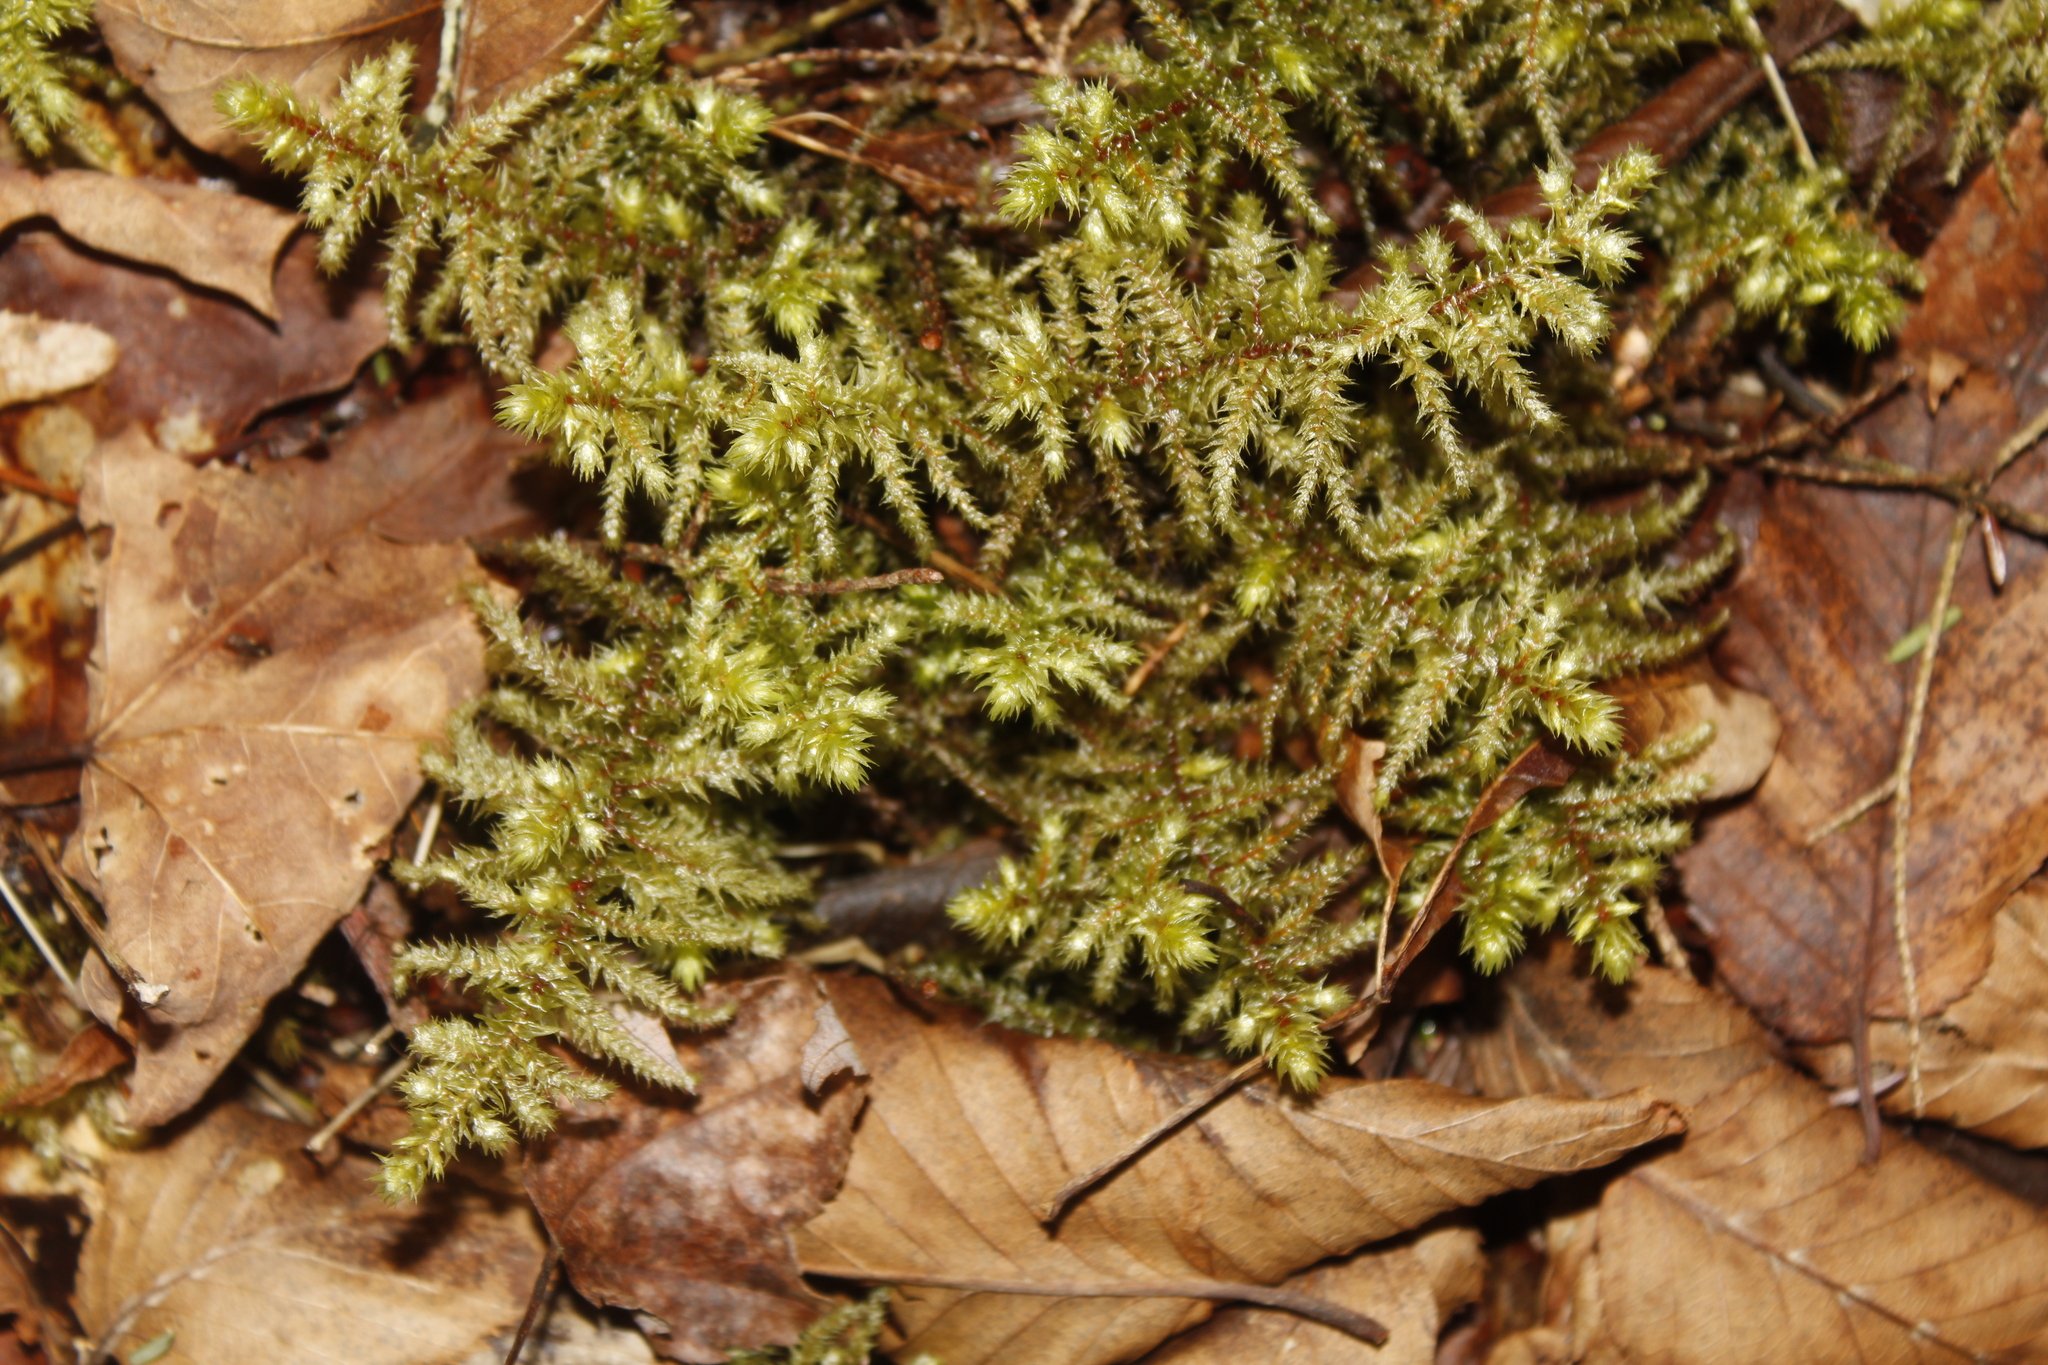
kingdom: Plantae
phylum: Bryophyta
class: Bryopsida
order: Hypnales
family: Hylocomiaceae
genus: Hylocomiadelphus
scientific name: Hylocomiadelphus triquetrus
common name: Rough goose neck moss
